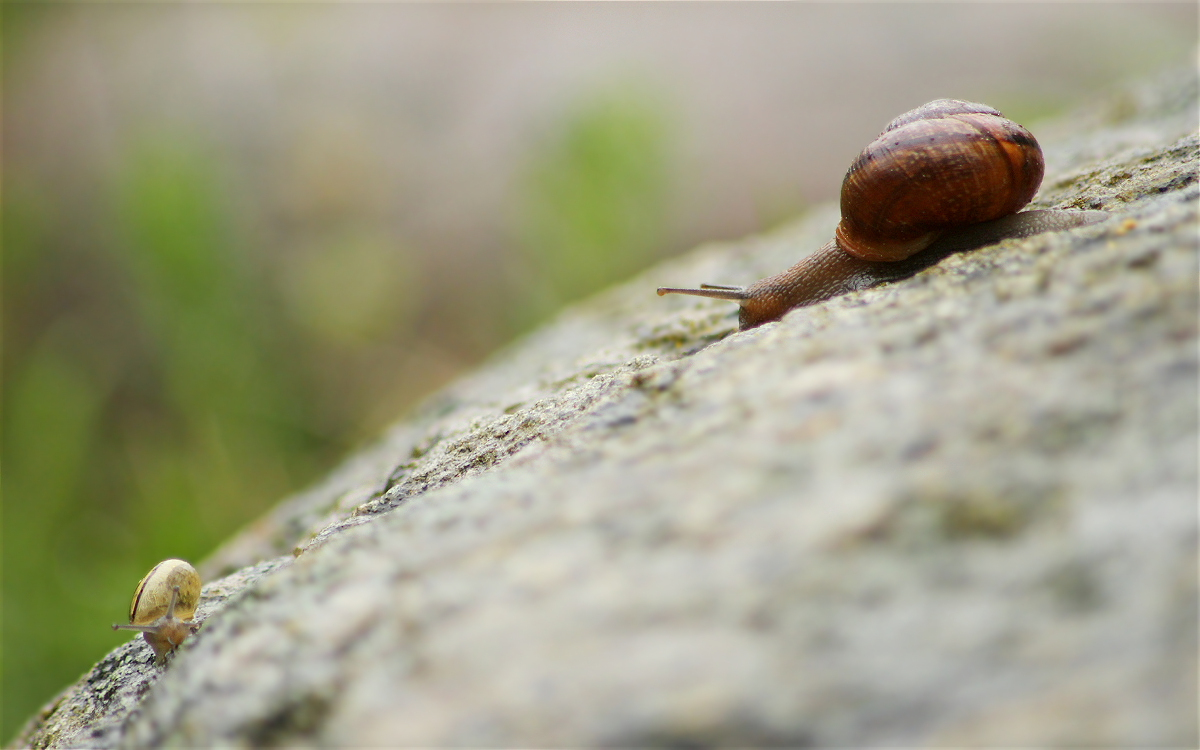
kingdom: Animalia
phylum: Mollusca
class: Gastropoda
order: Stylommatophora
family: Helicidae
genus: Arianta
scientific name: Arianta arbustorum
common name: Copse snail
